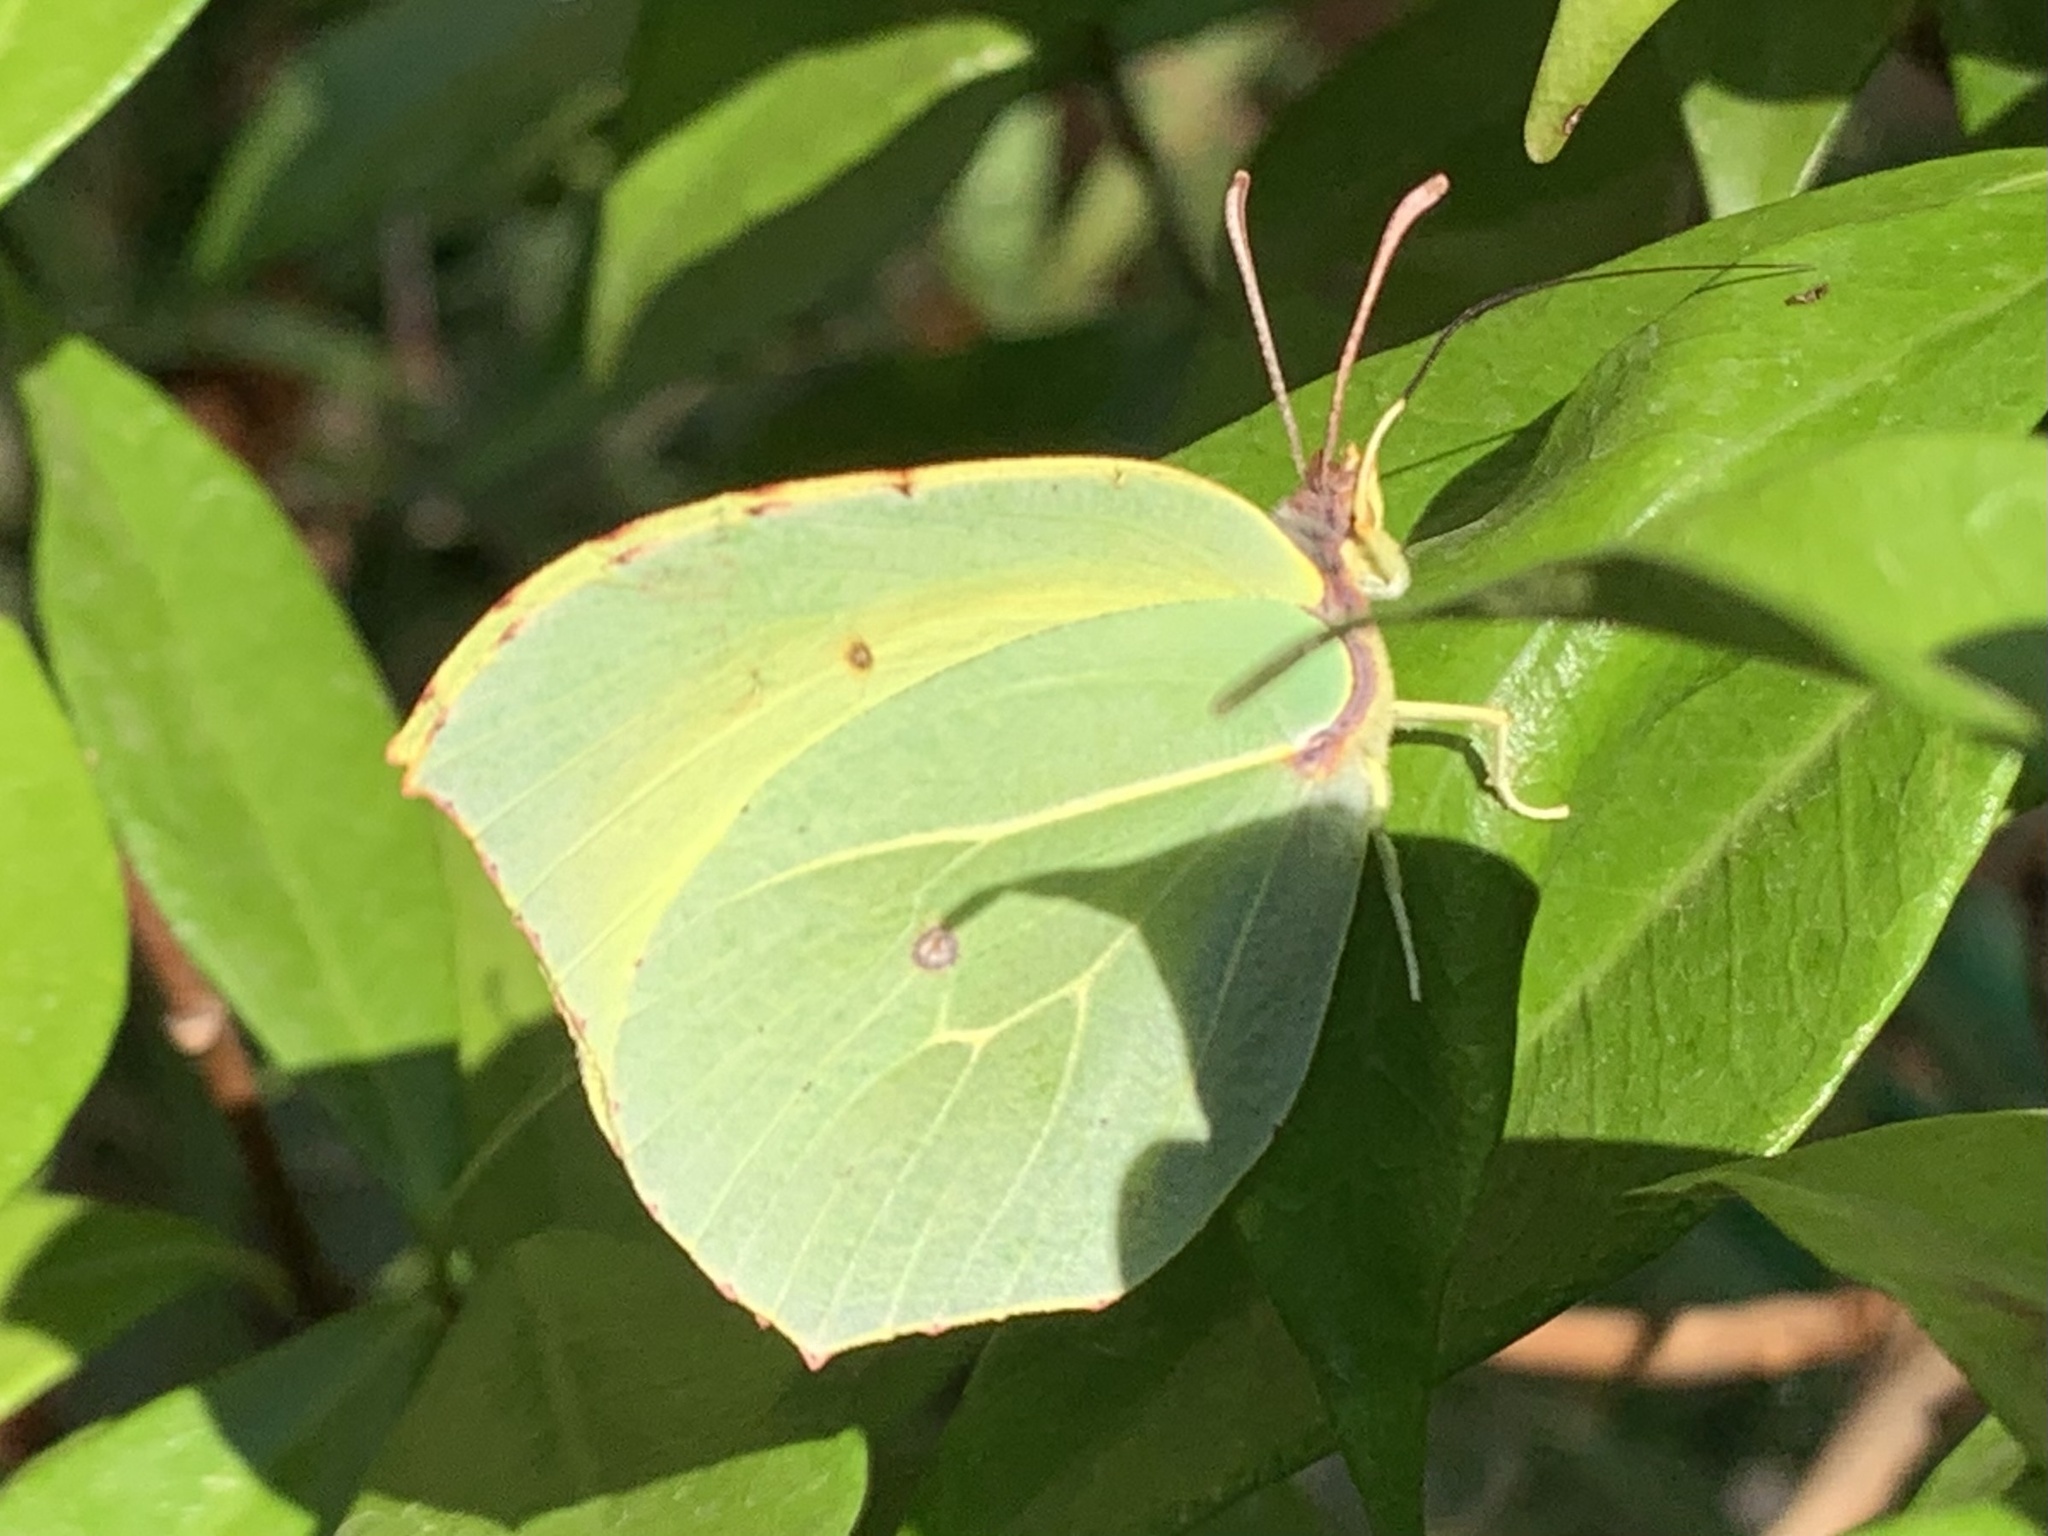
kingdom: Animalia
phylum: Arthropoda
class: Insecta
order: Lepidoptera
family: Pieridae
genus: Gonepteryx
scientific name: Gonepteryx cleopatra
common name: Cleopatra
